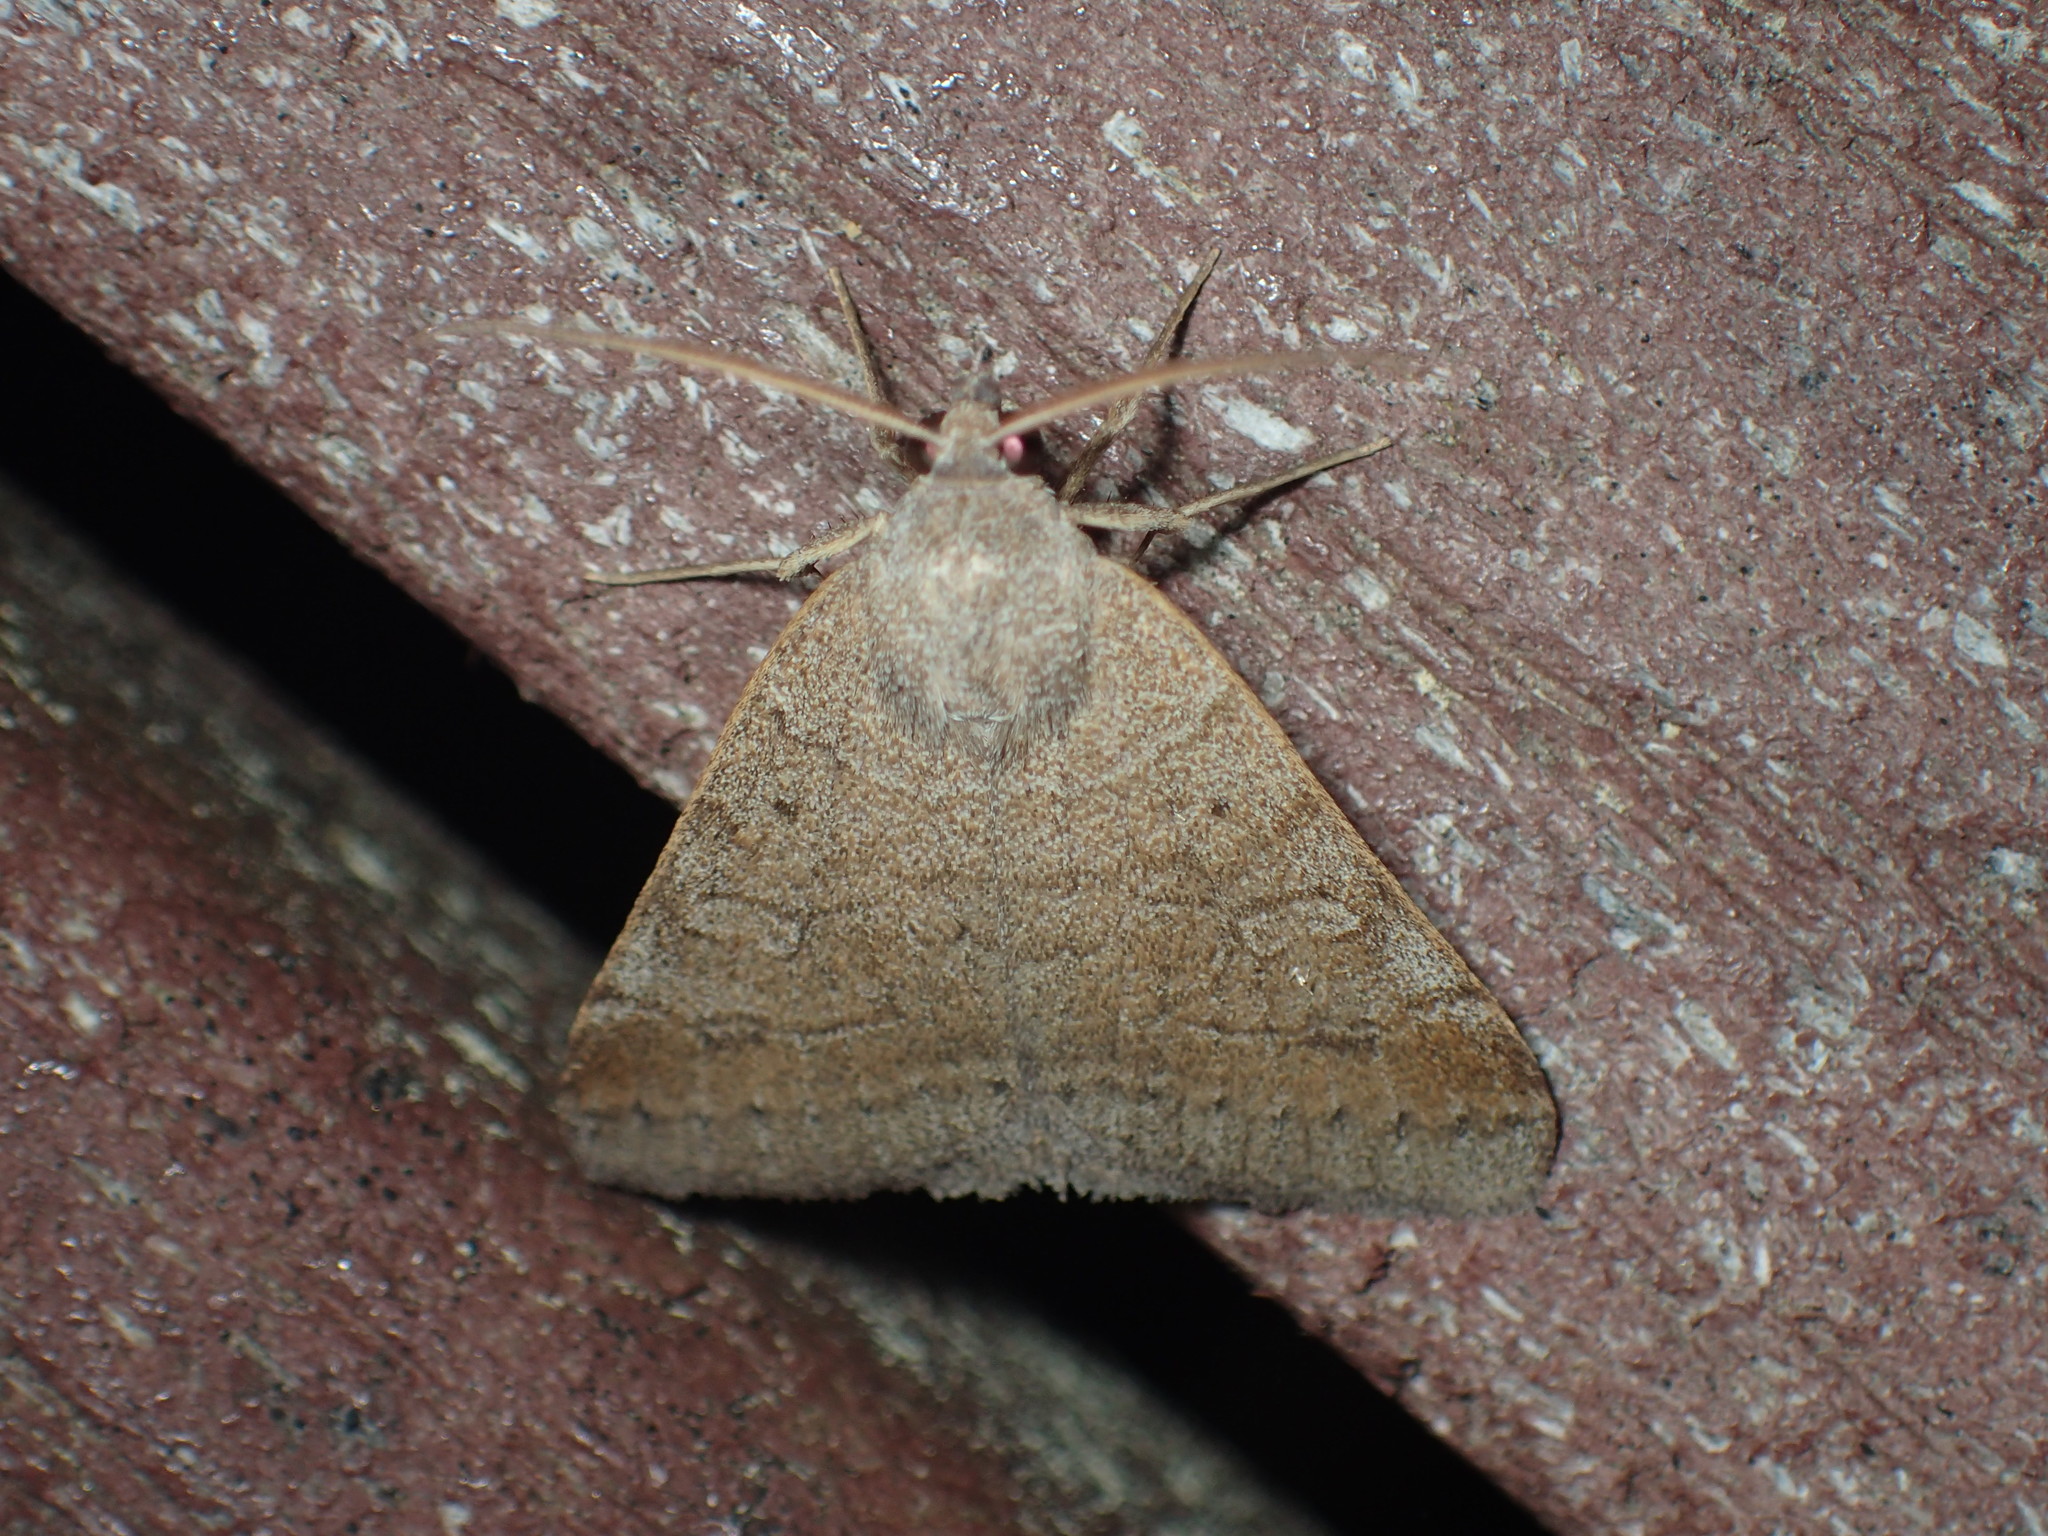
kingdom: Animalia
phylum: Arthropoda
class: Insecta
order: Lepidoptera
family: Erebidae
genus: Mocis
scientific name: Mocis latipes
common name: Striped grass looper
